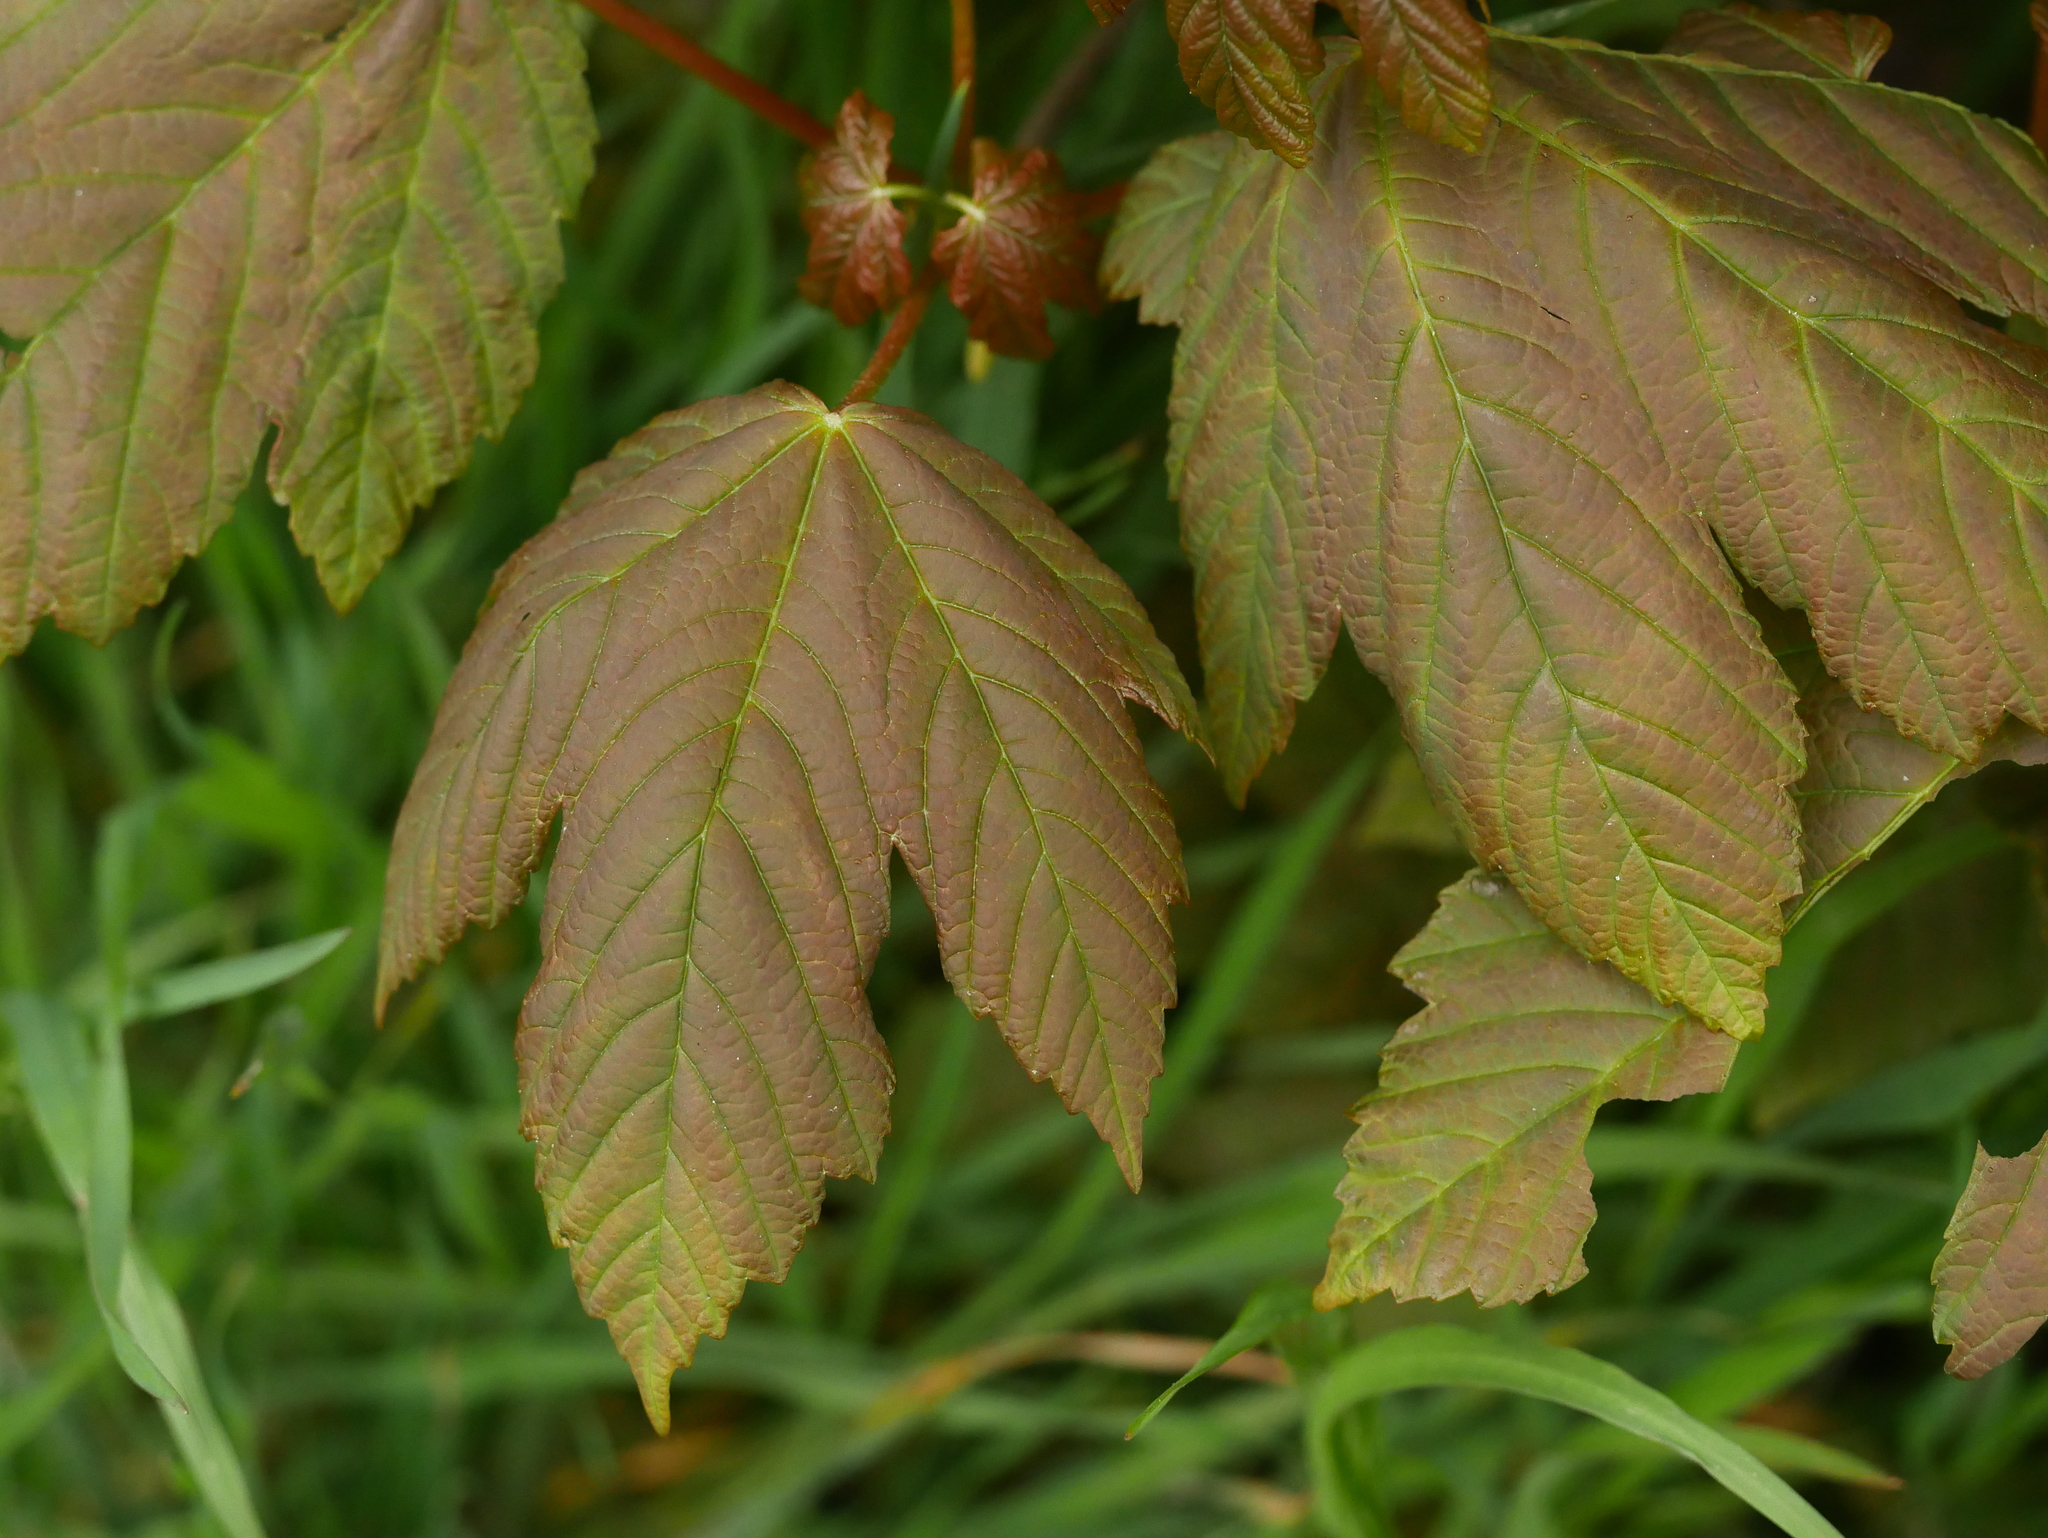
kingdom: Plantae
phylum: Tracheophyta
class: Magnoliopsida
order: Sapindales
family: Sapindaceae
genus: Acer
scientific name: Acer pseudoplatanus
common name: Sycamore
